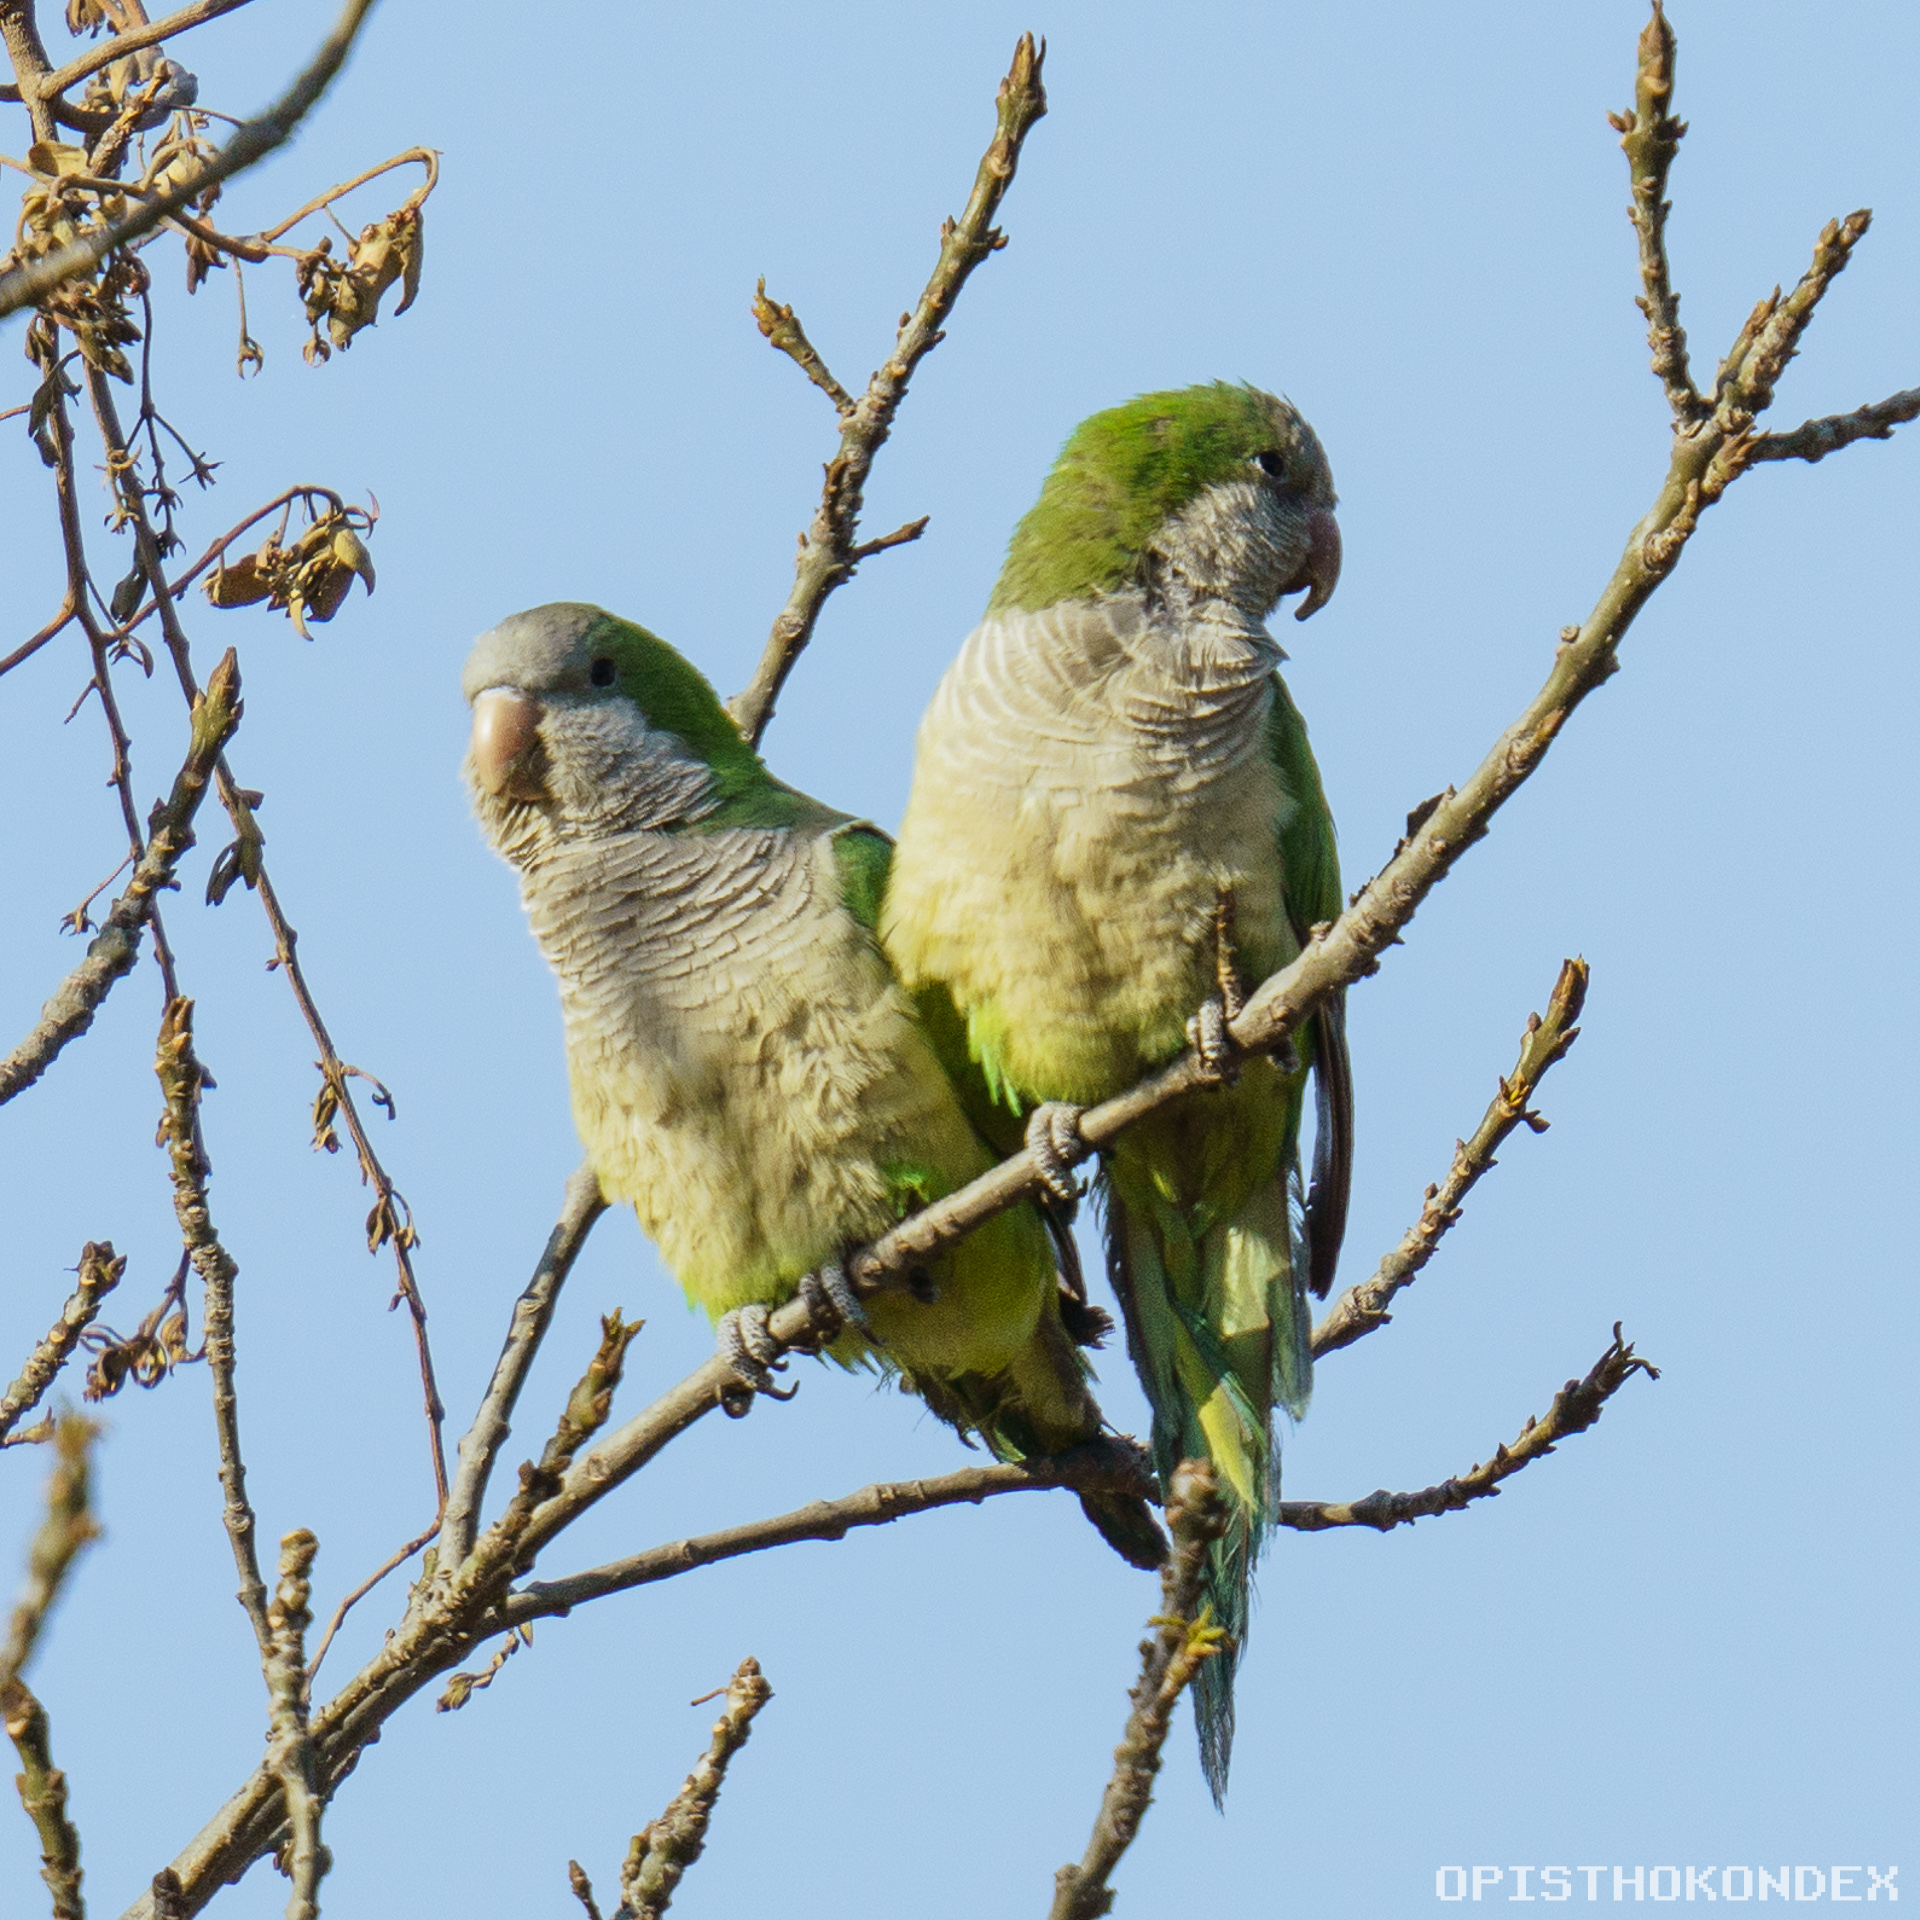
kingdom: Animalia
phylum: Chordata
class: Aves
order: Psittaciformes
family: Psittacidae
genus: Myiopsitta
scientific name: Myiopsitta monachus
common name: Monk parakeet
